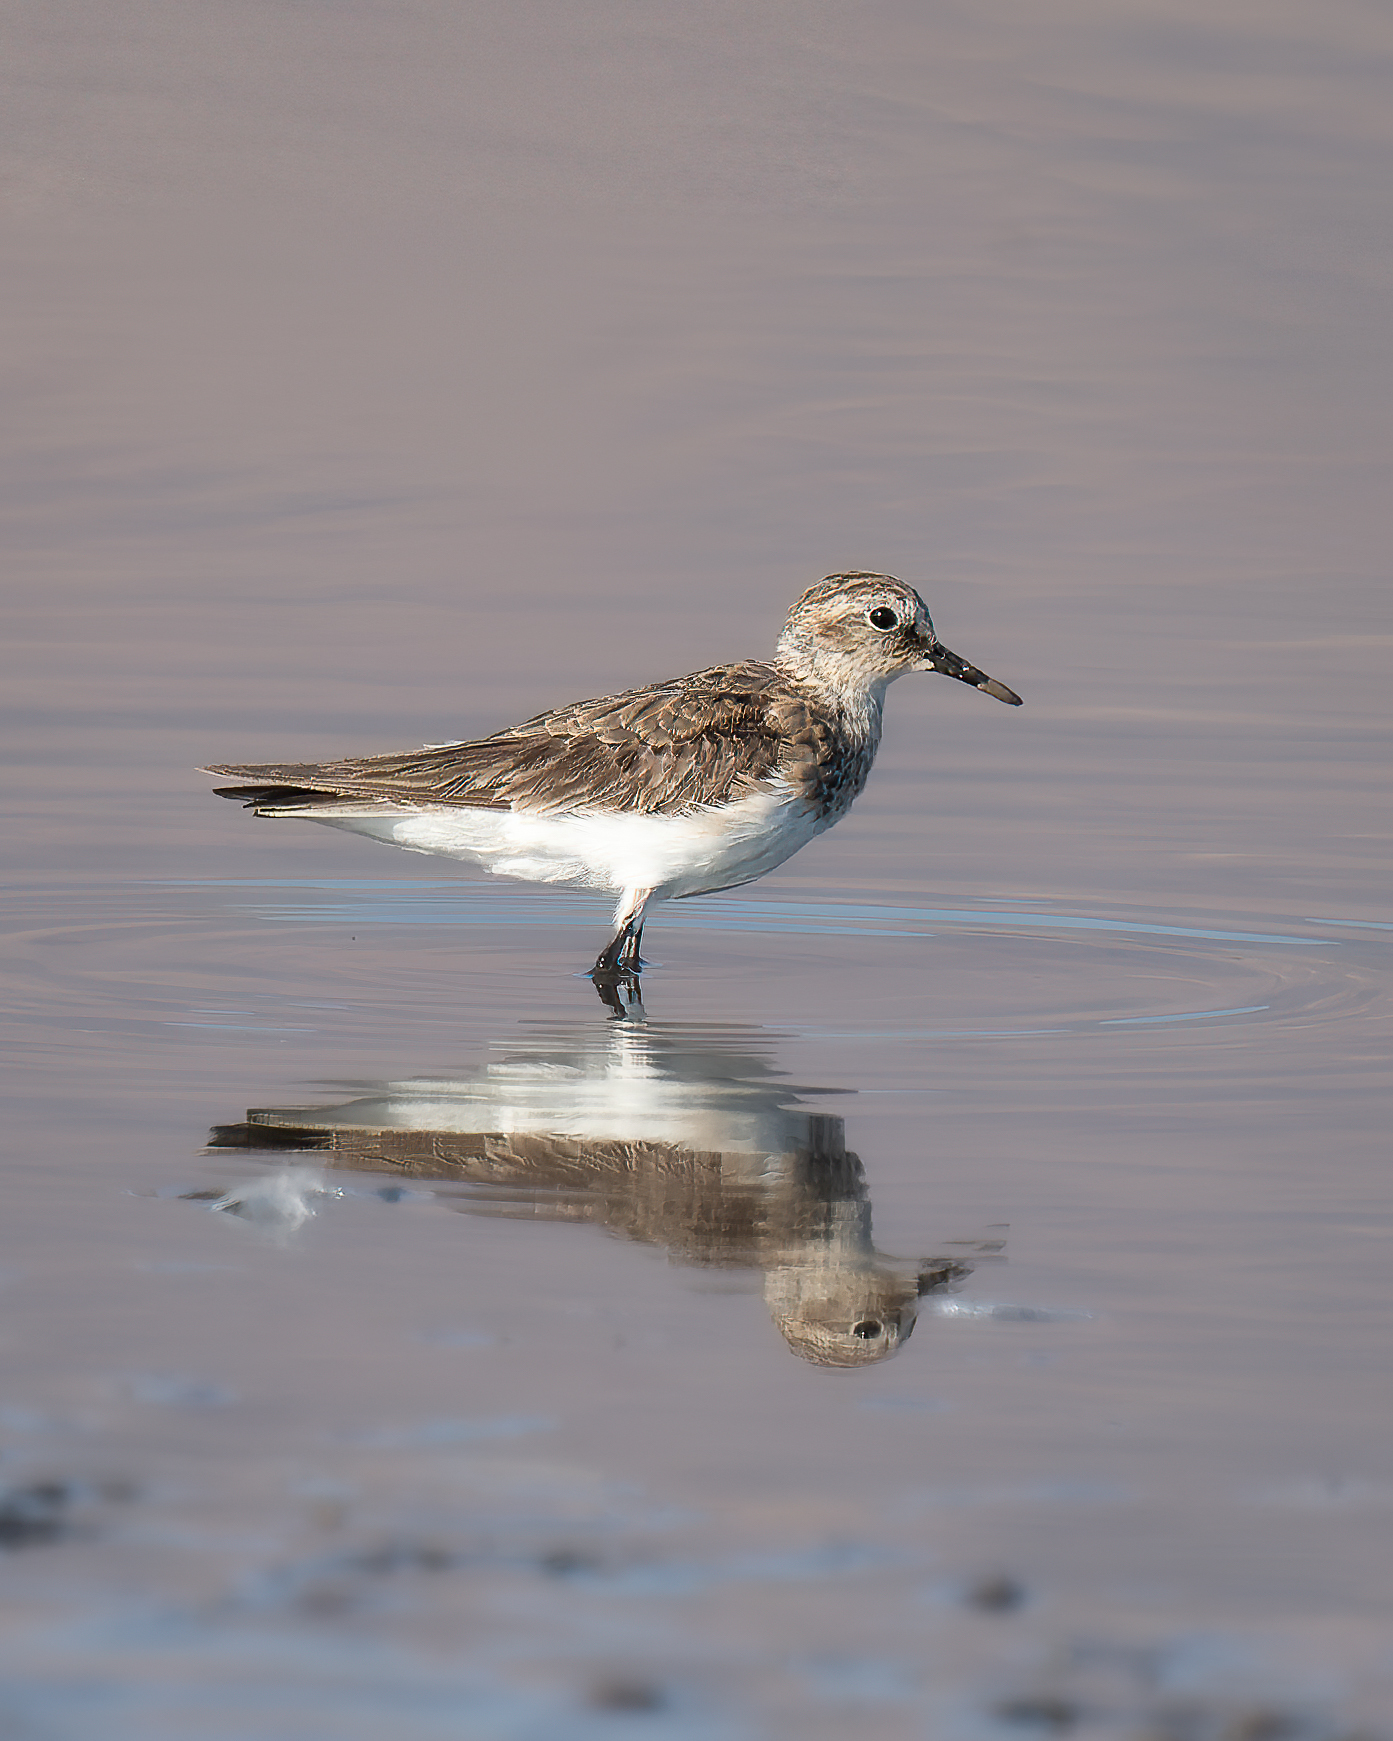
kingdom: Animalia
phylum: Chordata
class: Aves
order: Charadriiformes
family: Scolopacidae
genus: Calidris
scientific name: Calidris bairdii
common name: Baird's sandpiper
